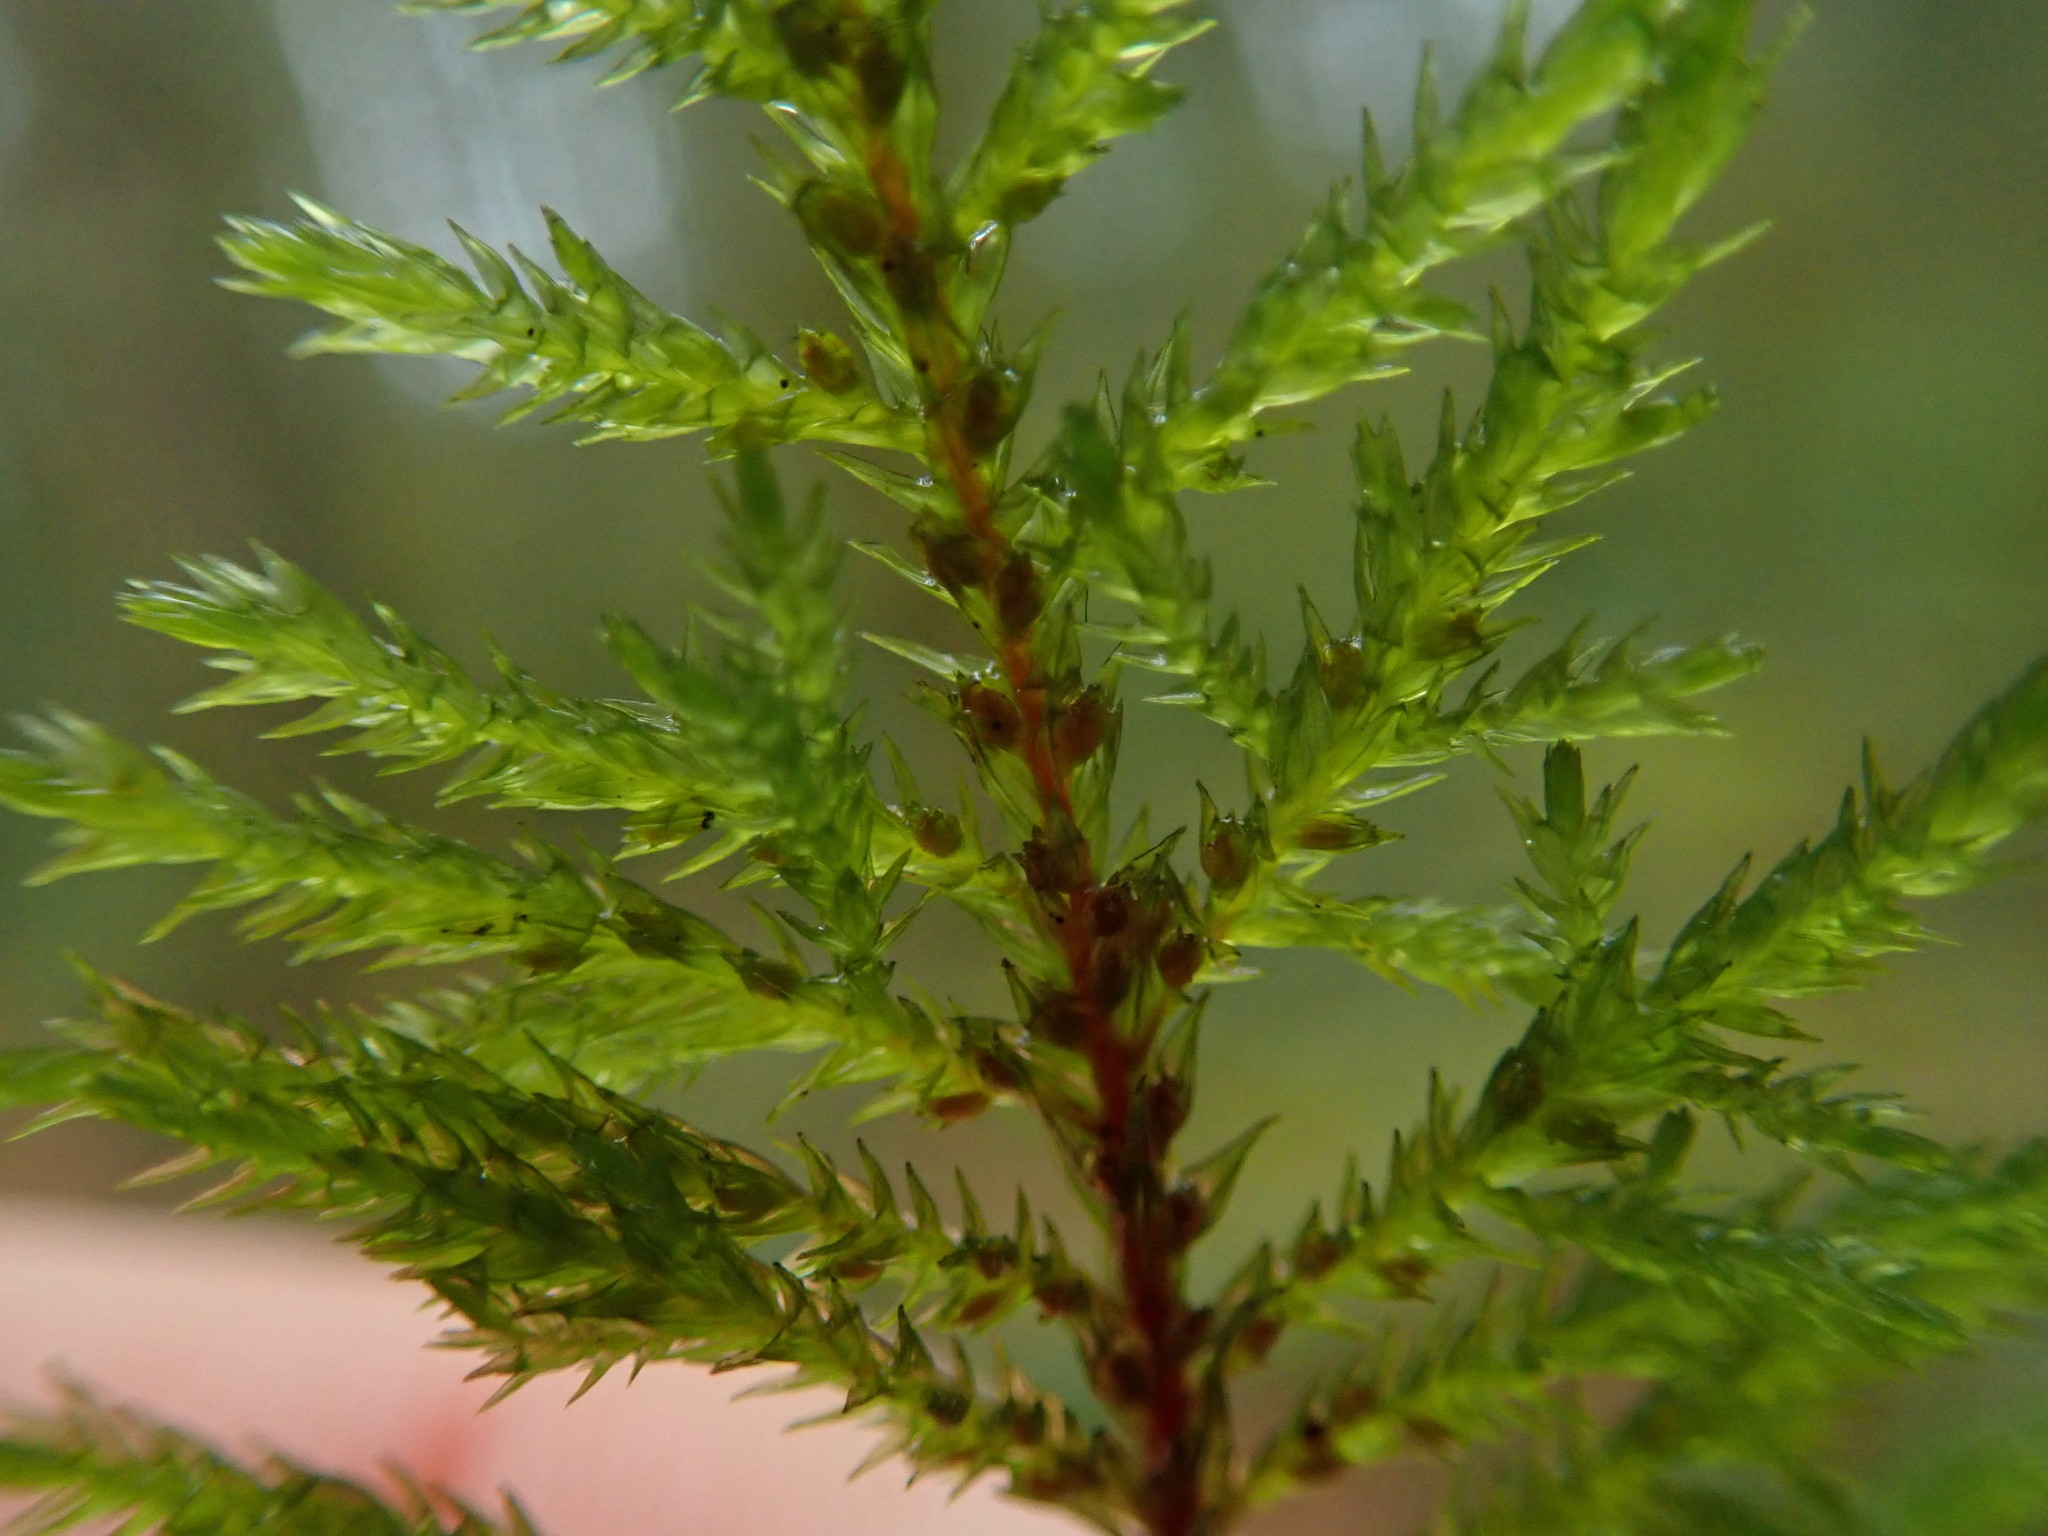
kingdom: Plantae
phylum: Bryophyta
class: Bryopsida
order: Hypnales
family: Cryphaeaceae
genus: Dendroalsia
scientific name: Dendroalsia abietina
